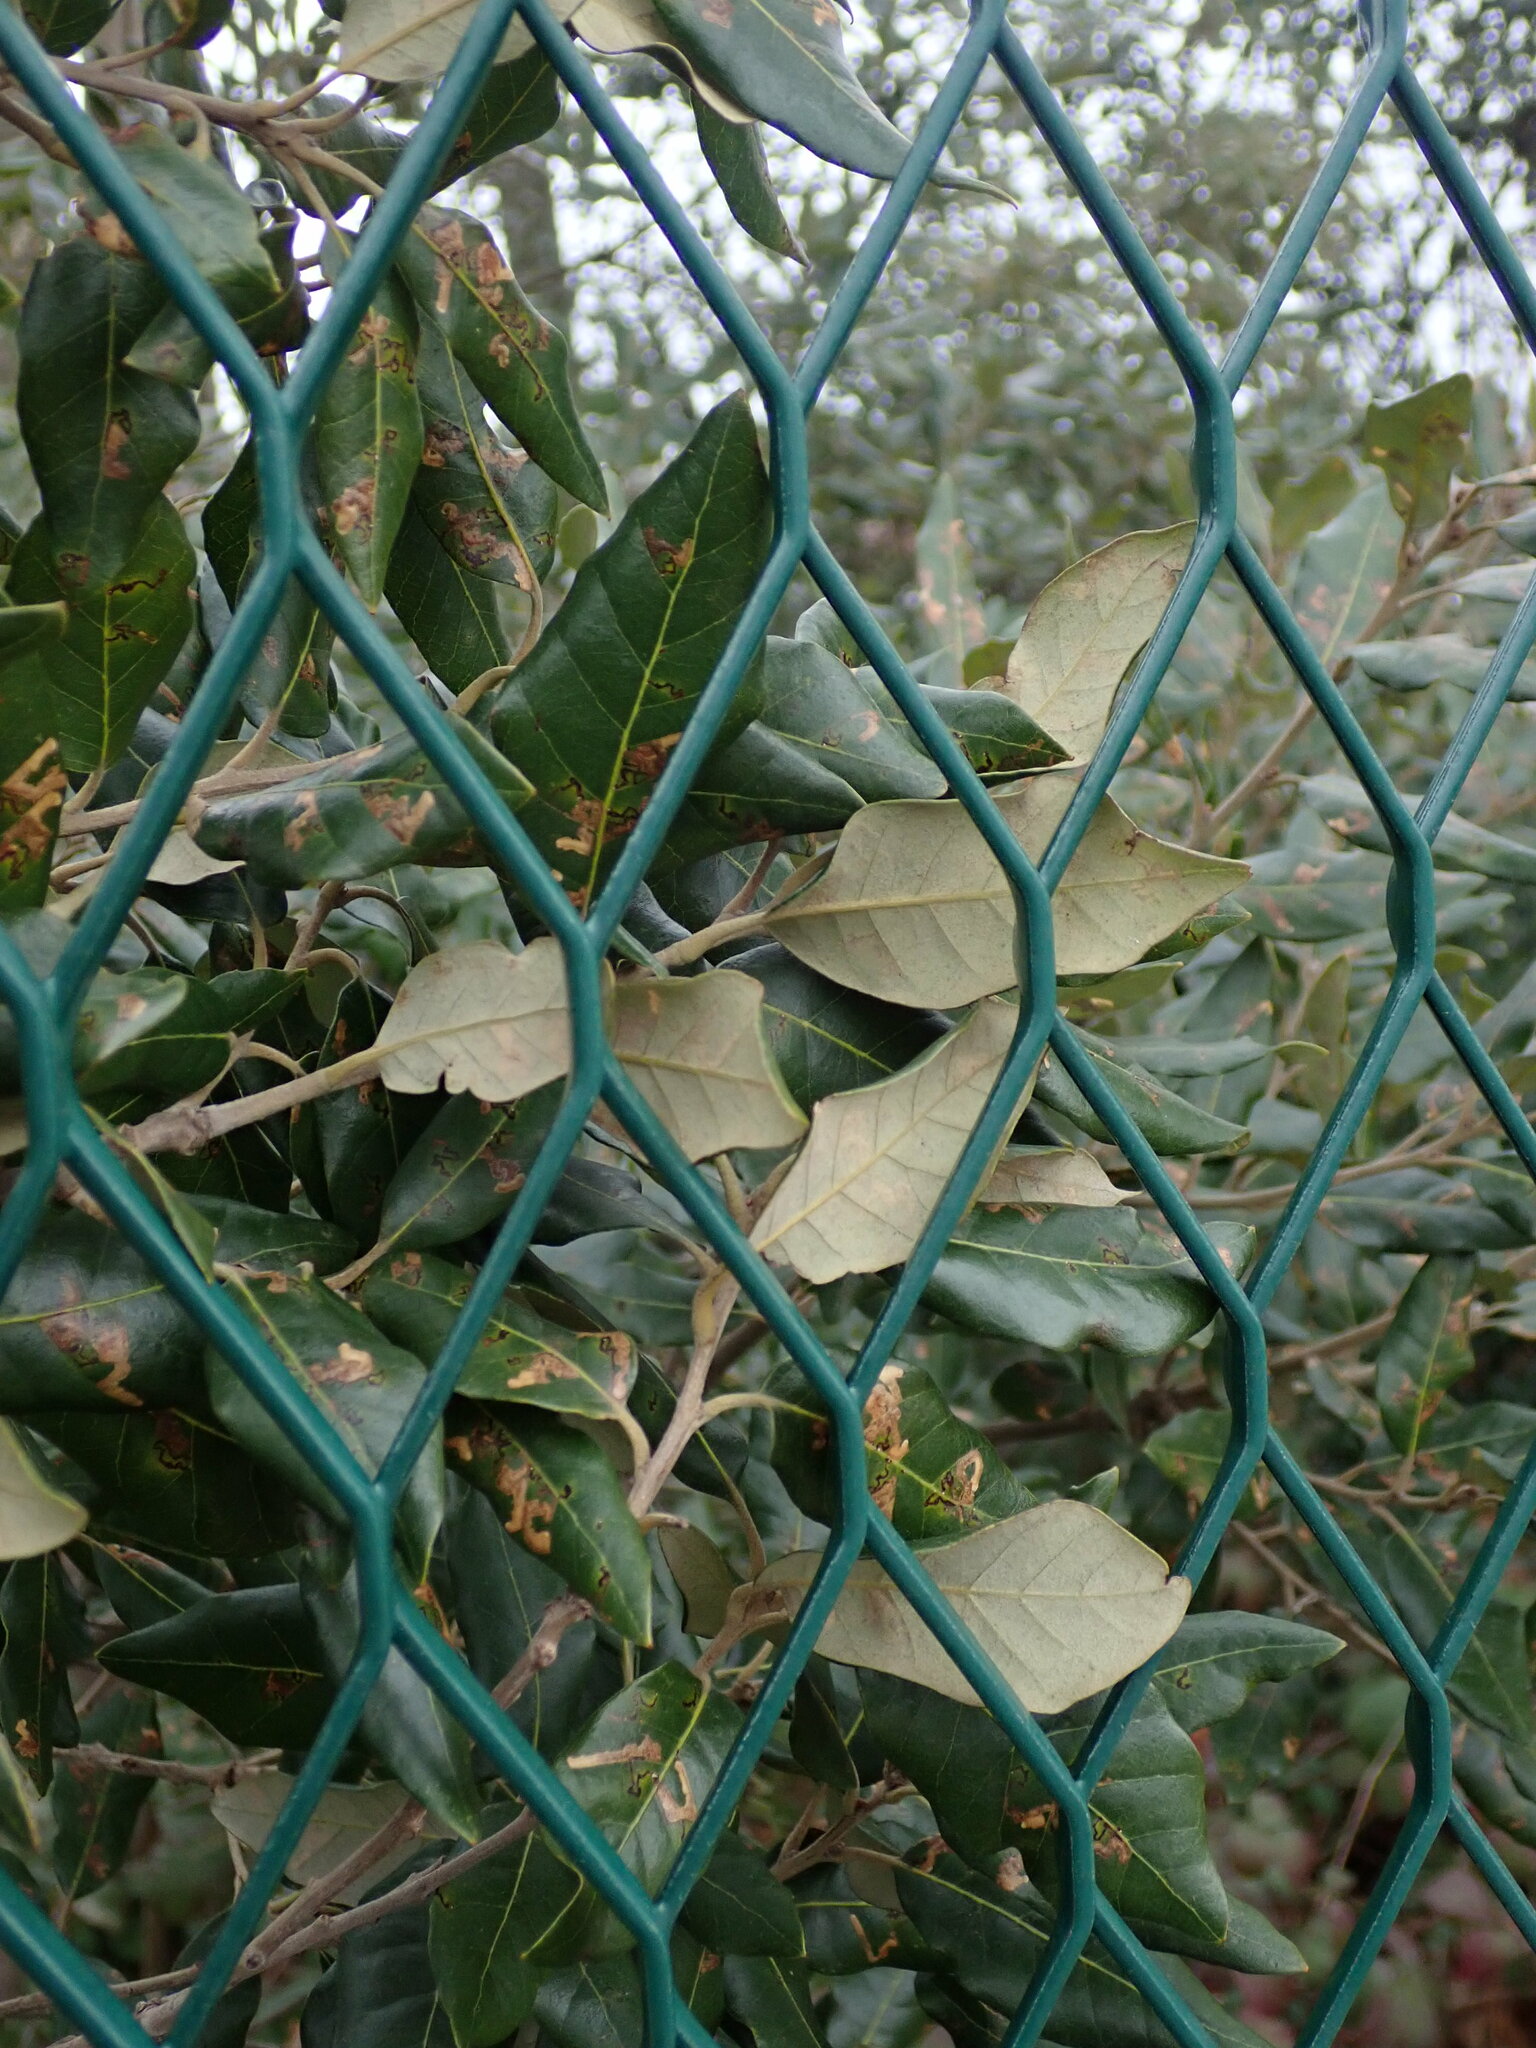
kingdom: Plantae
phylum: Tracheophyta
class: Magnoliopsida
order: Fagales
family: Fagaceae
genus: Quercus
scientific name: Quercus ilex
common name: Evergreen oak
